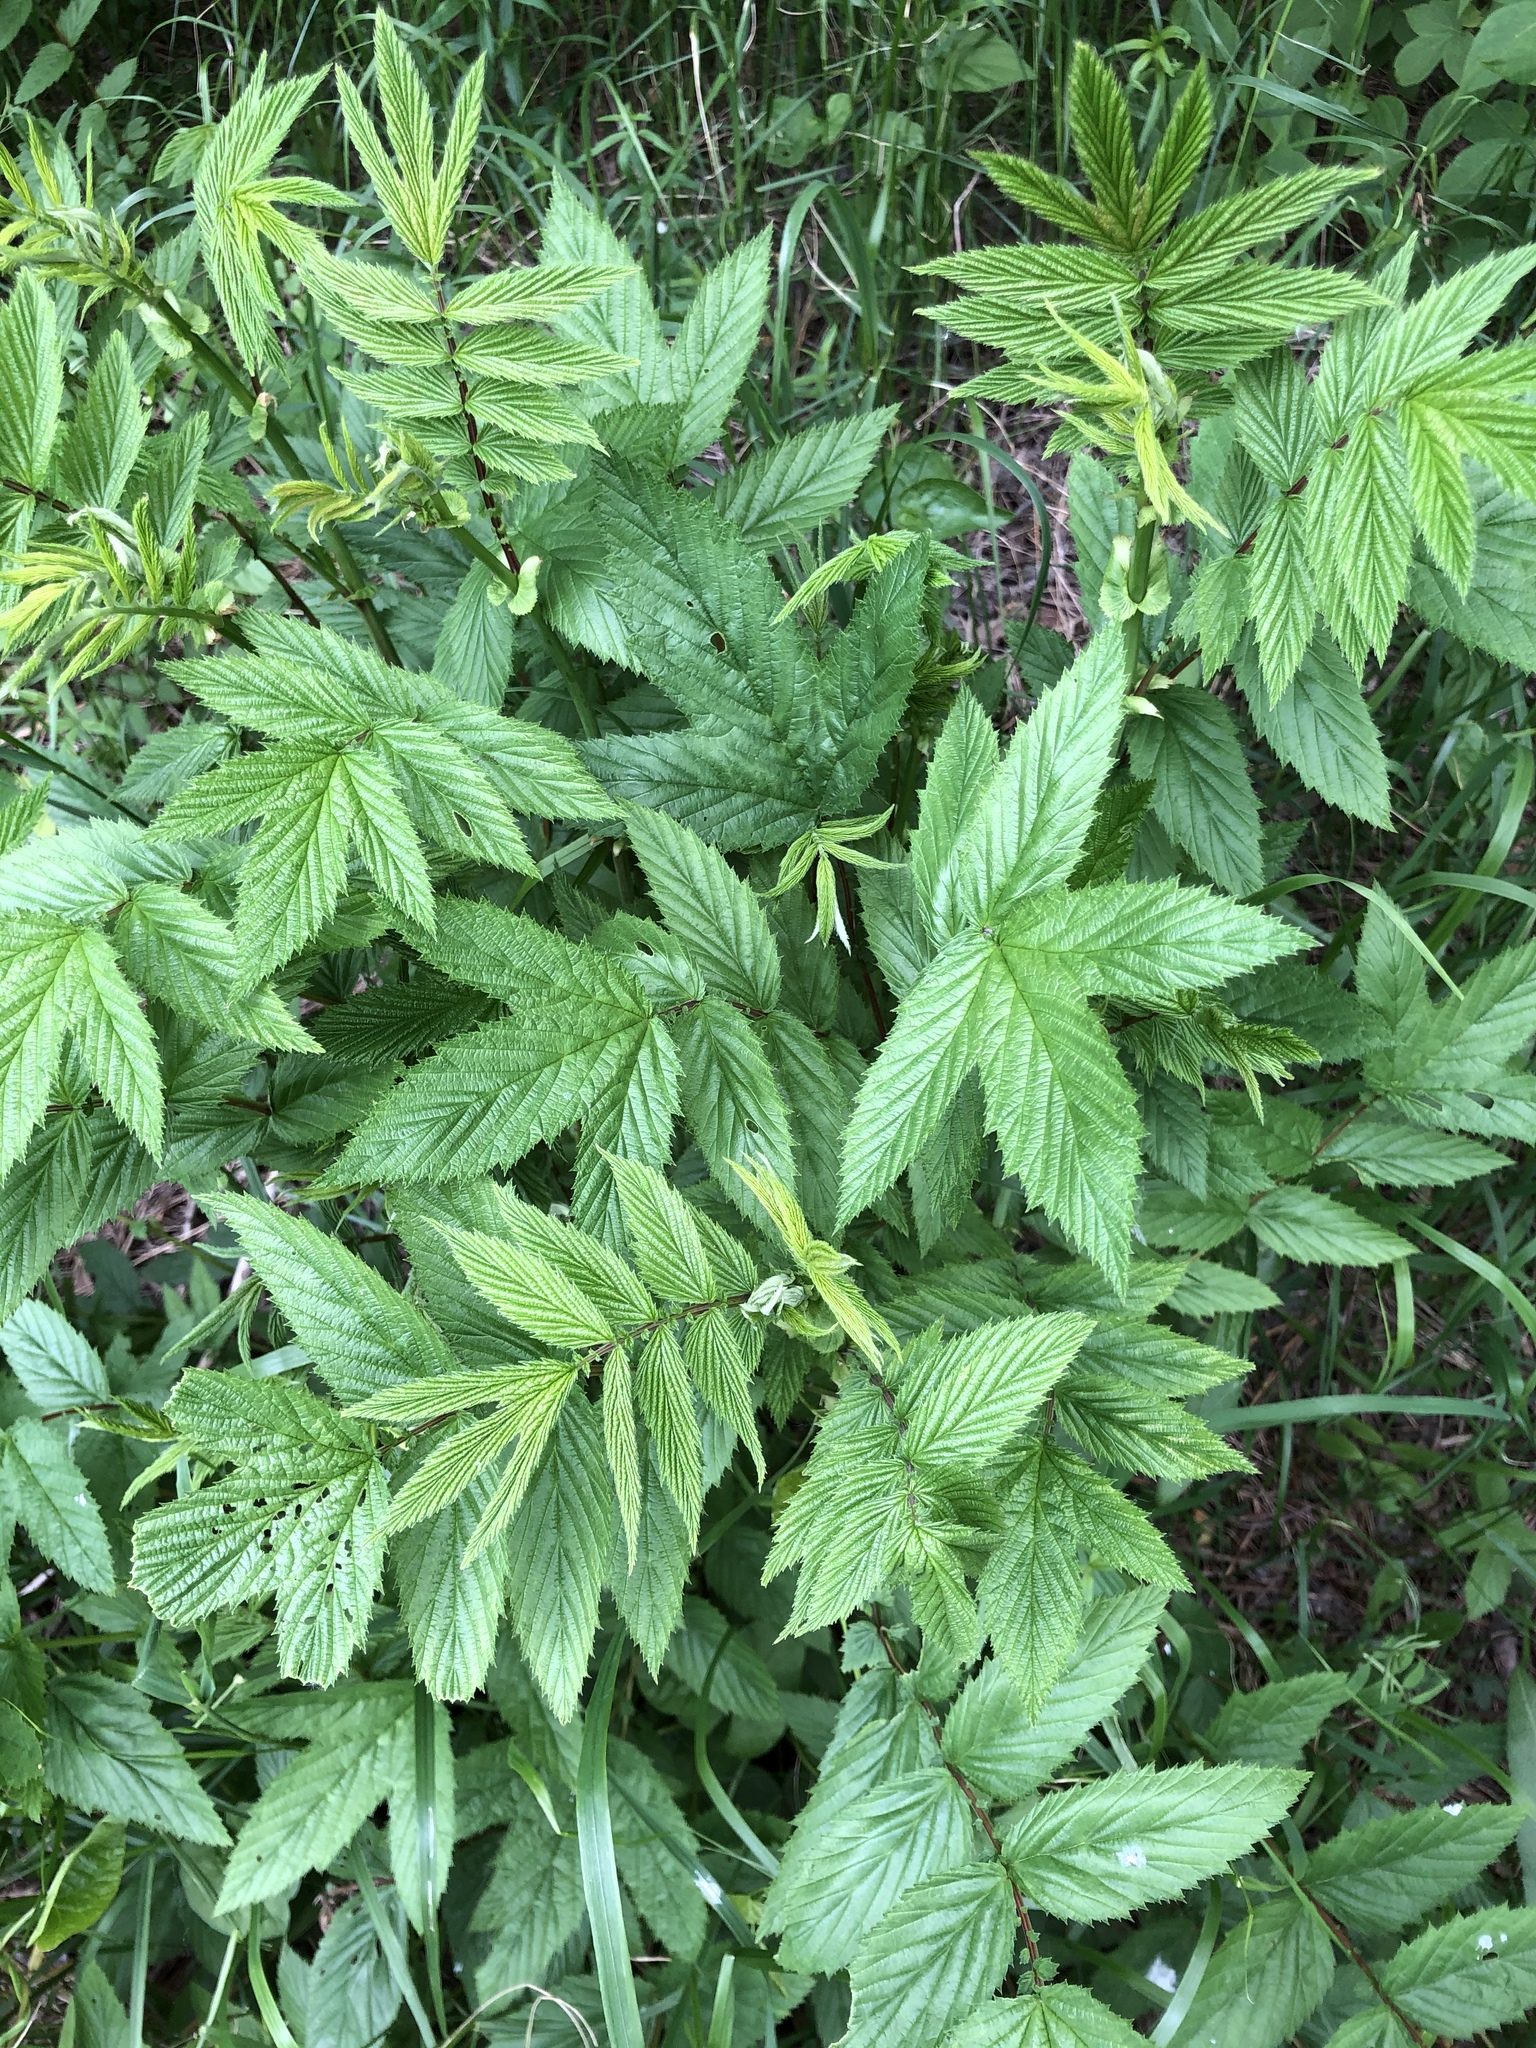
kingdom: Plantae
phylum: Tracheophyta
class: Magnoliopsida
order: Rosales
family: Rosaceae
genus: Filipendula
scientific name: Filipendula ulmaria
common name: Meadowsweet
